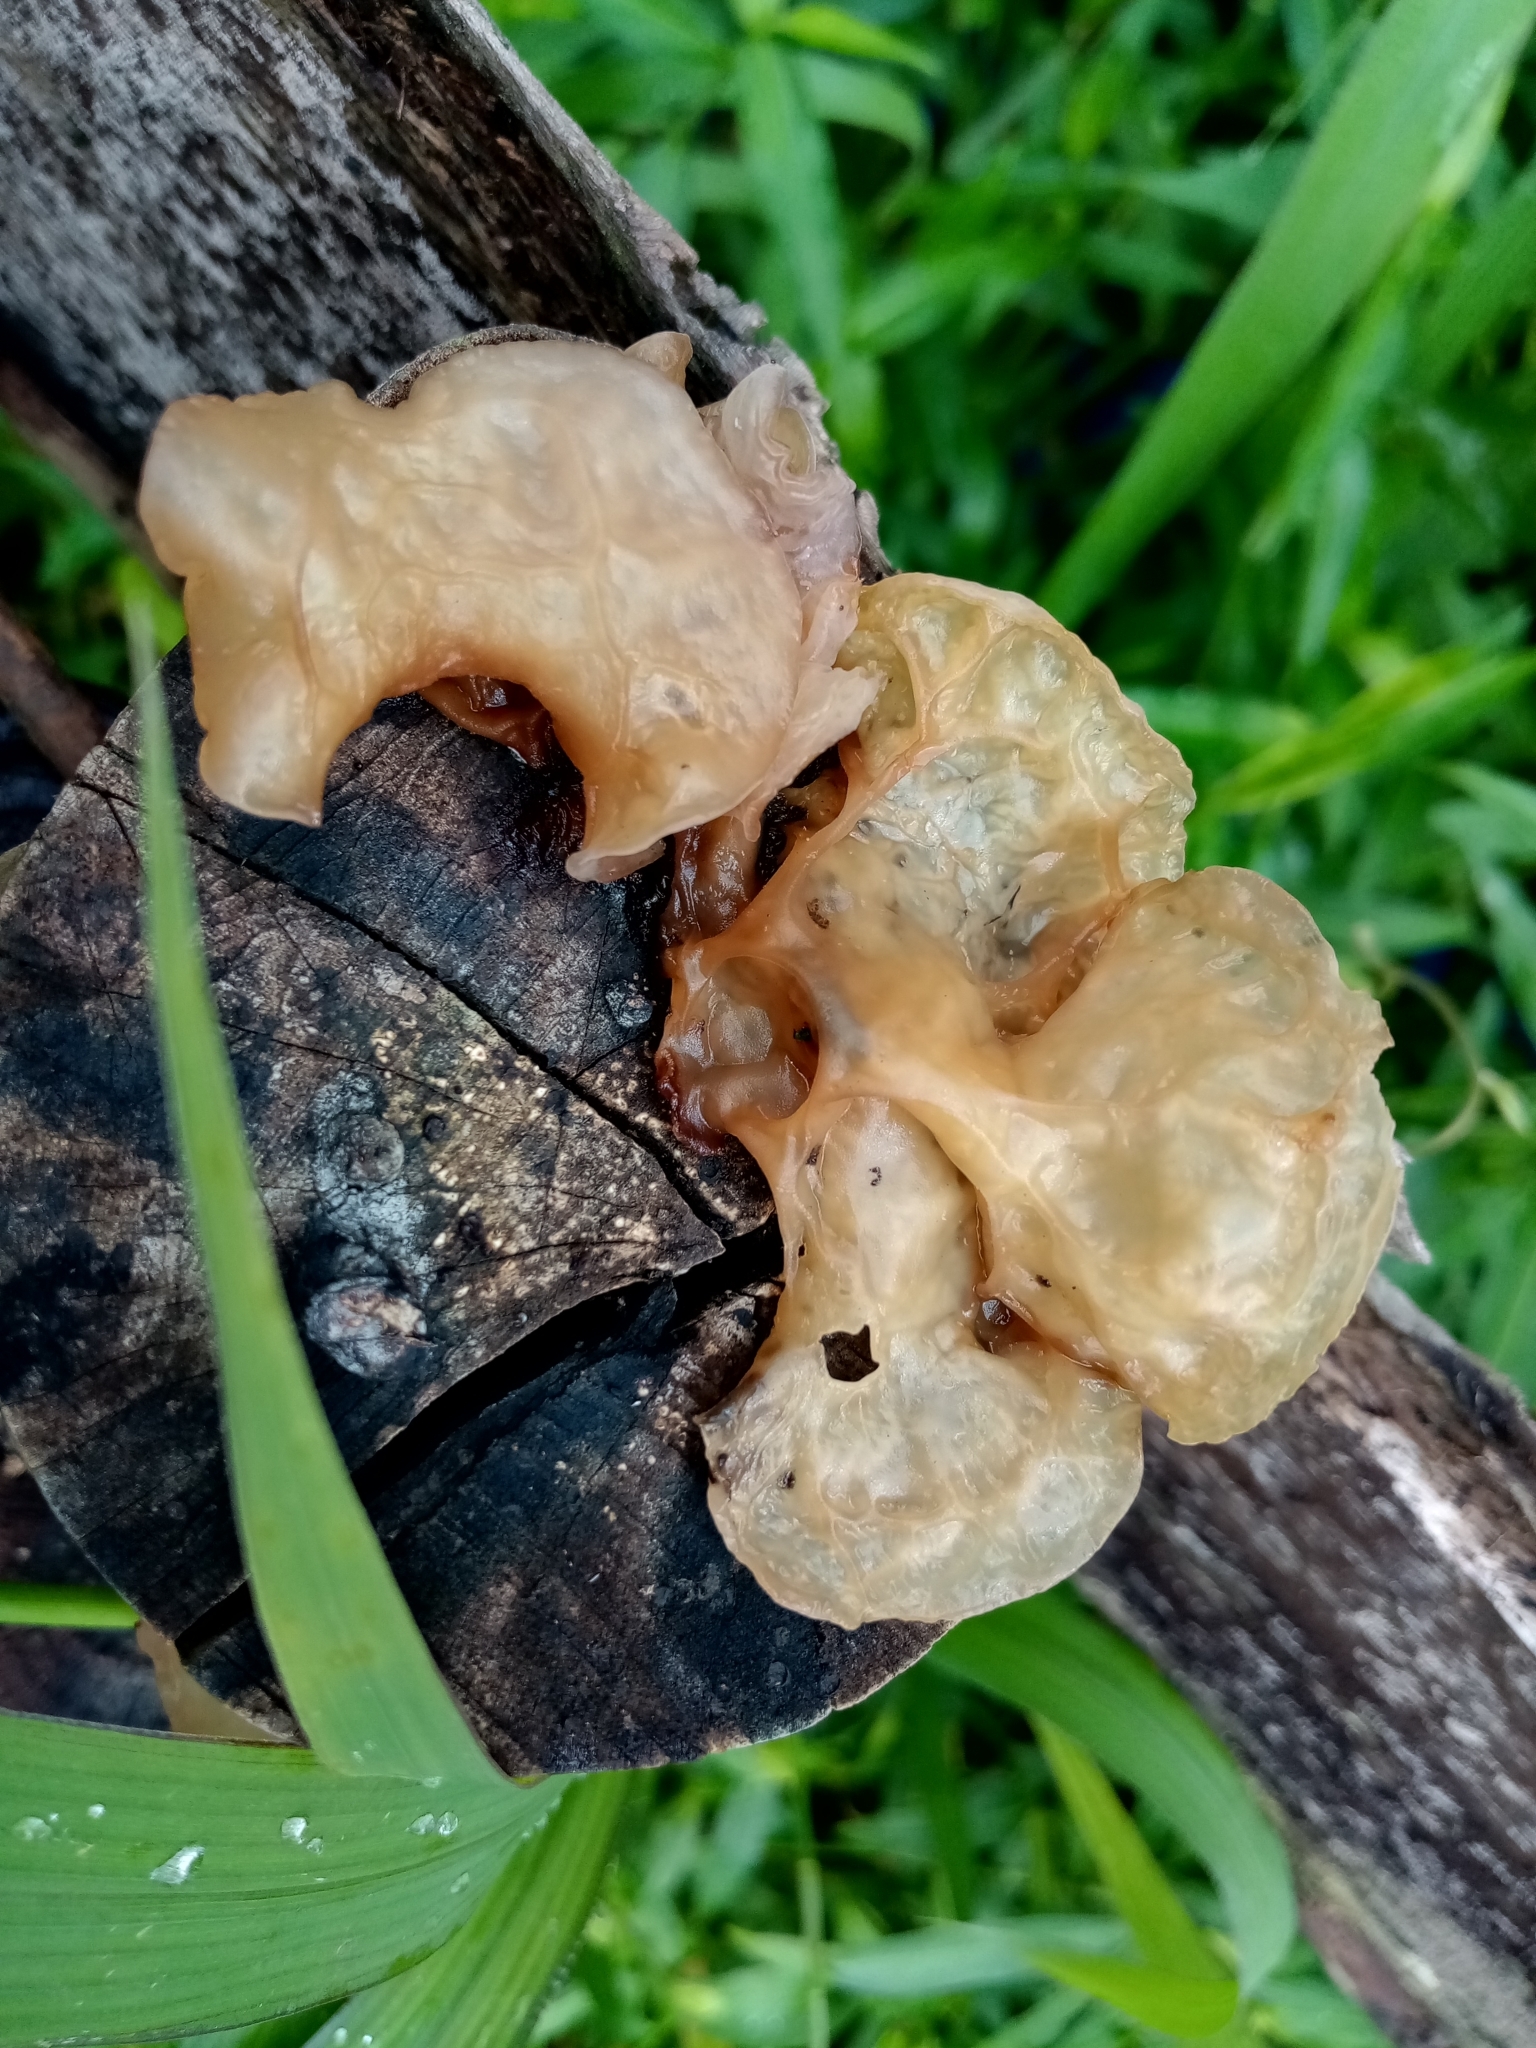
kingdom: Fungi
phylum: Basidiomycota
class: Agaricomycetes
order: Auriculariales
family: Auriculariaceae
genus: Auricularia
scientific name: Auricularia heimuer
